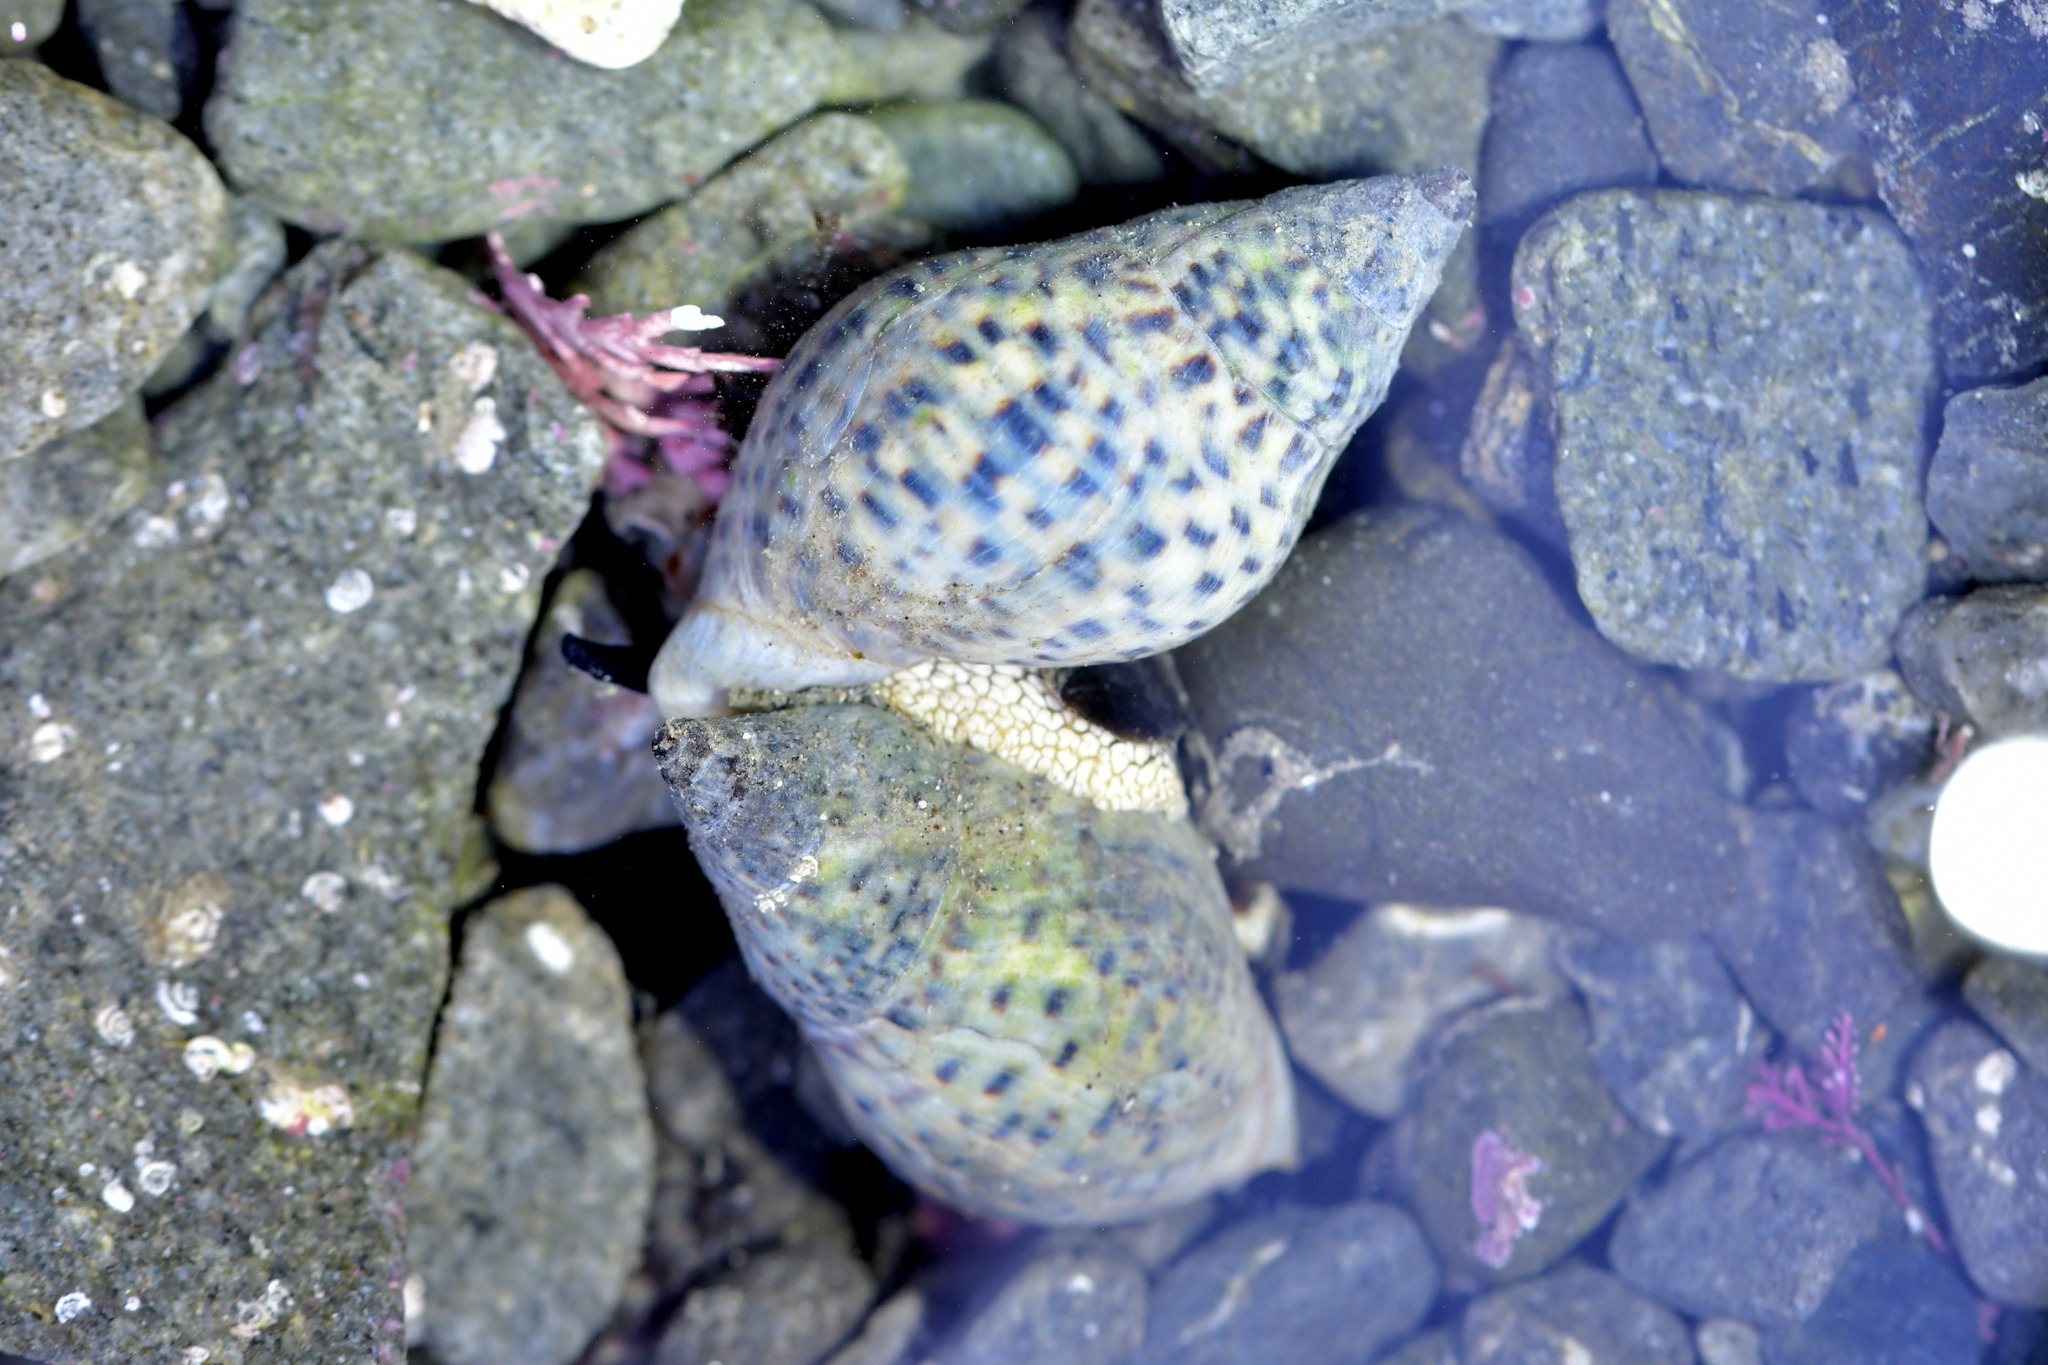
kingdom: Animalia
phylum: Mollusca
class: Gastropoda
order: Neogastropoda
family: Cominellidae
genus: Cominella
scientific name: Cominella maculosa
